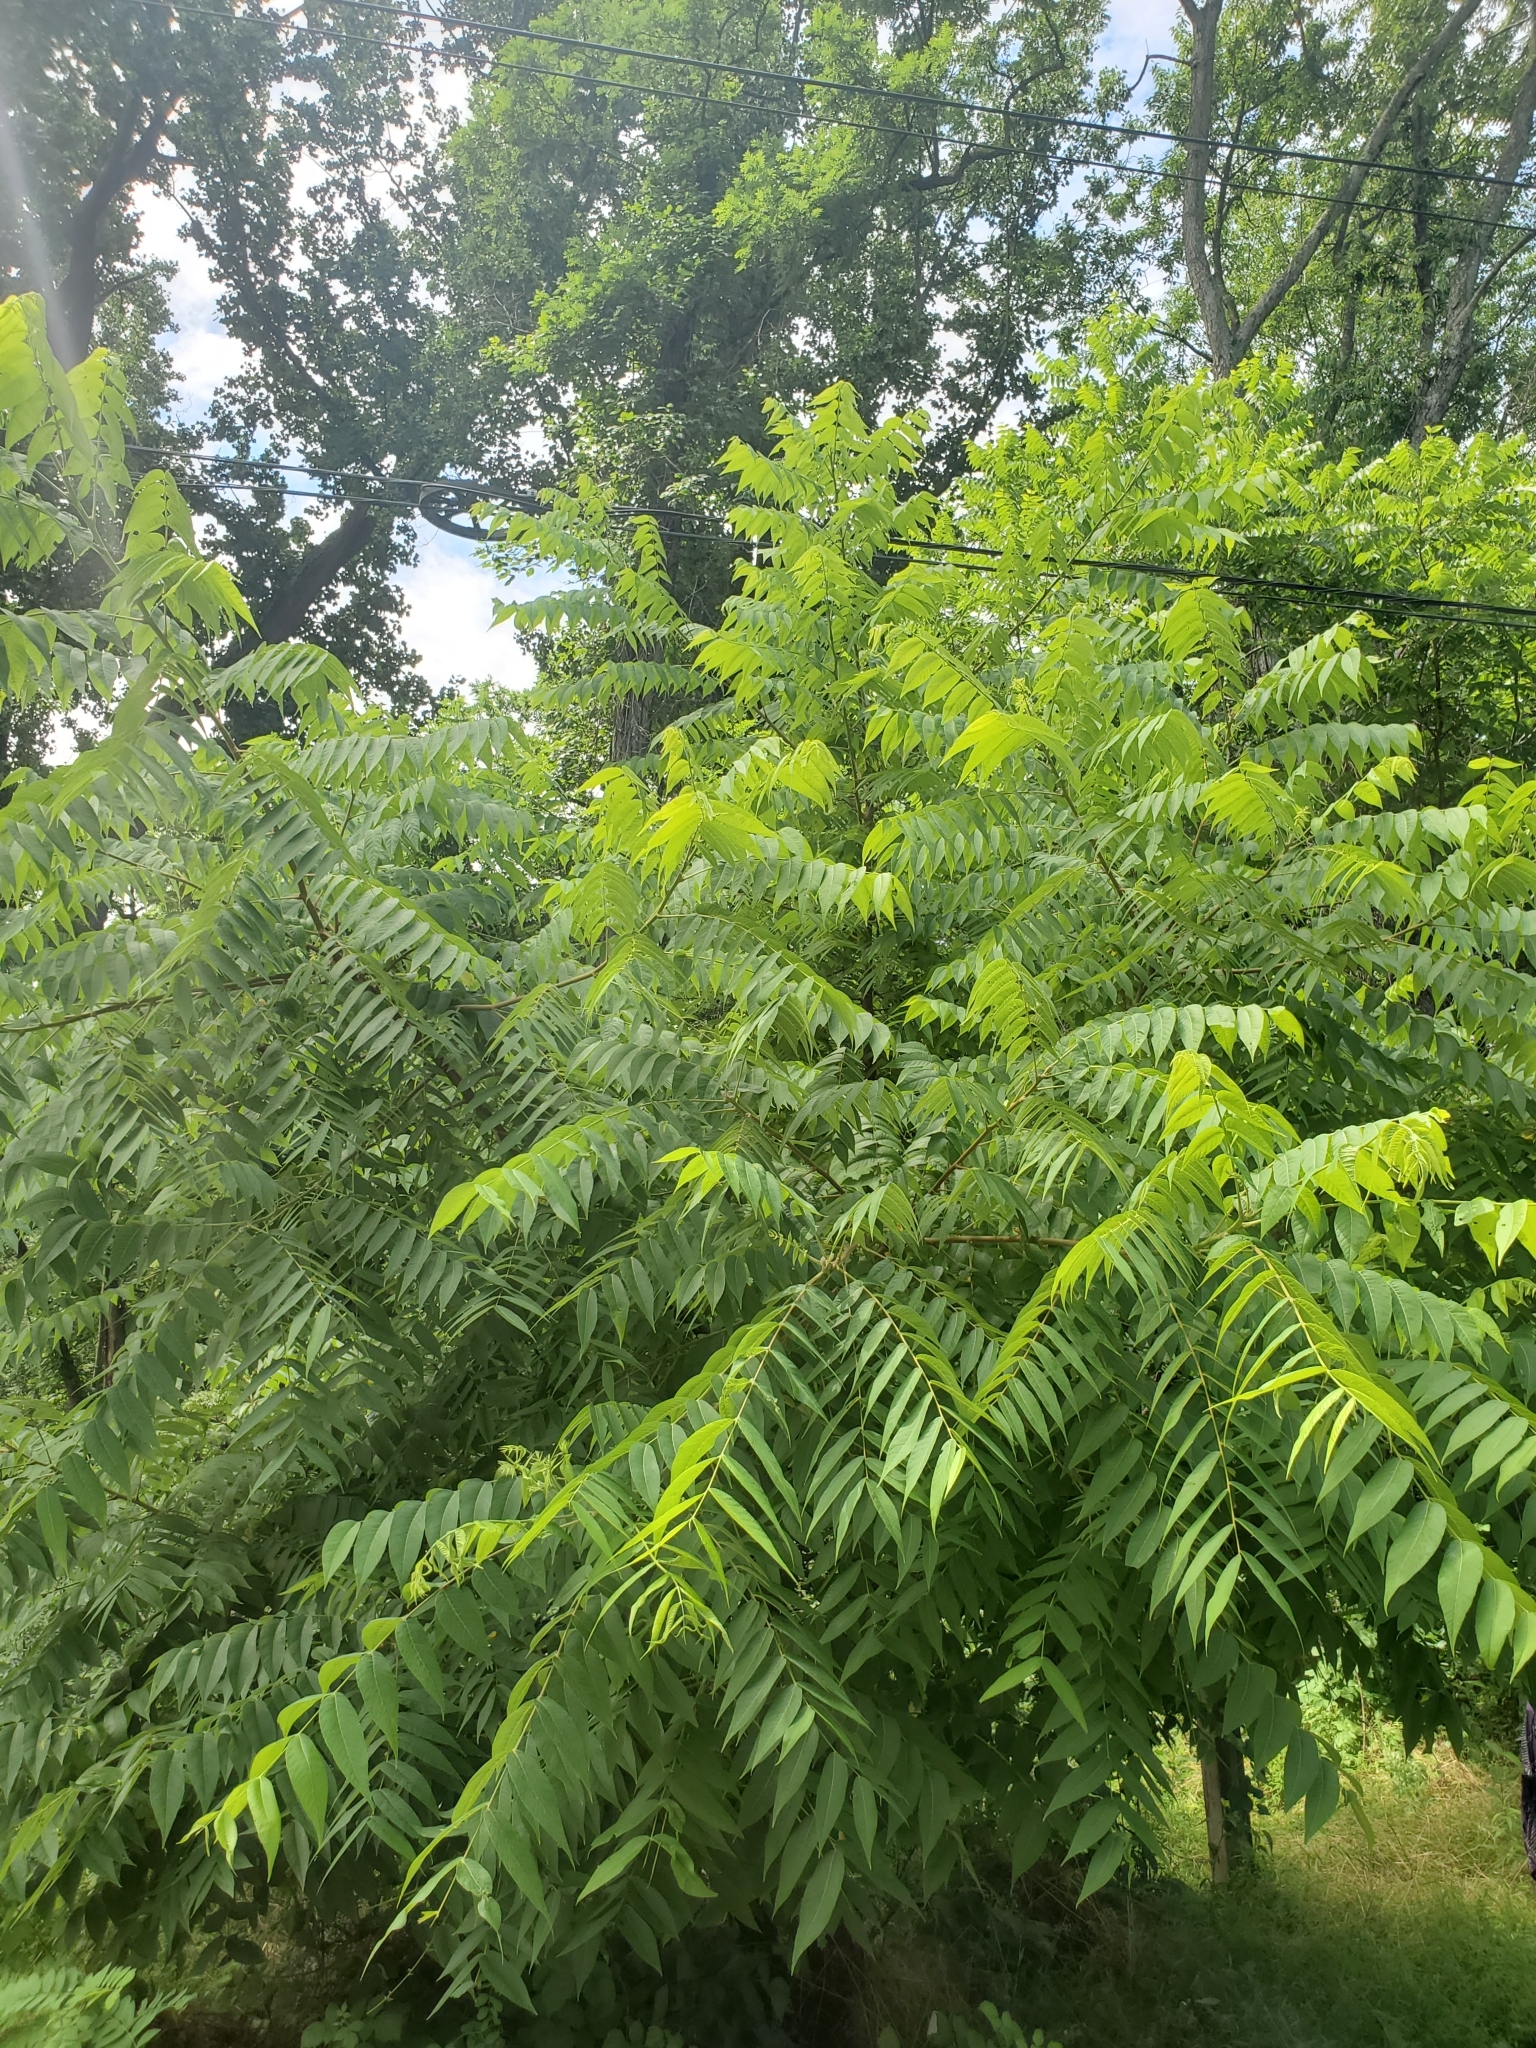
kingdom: Plantae
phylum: Tracheophyta
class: Magnoliopsida
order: Fagales
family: Juglandaceae
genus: Juglans
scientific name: Juglans nigra
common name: Black walnut
